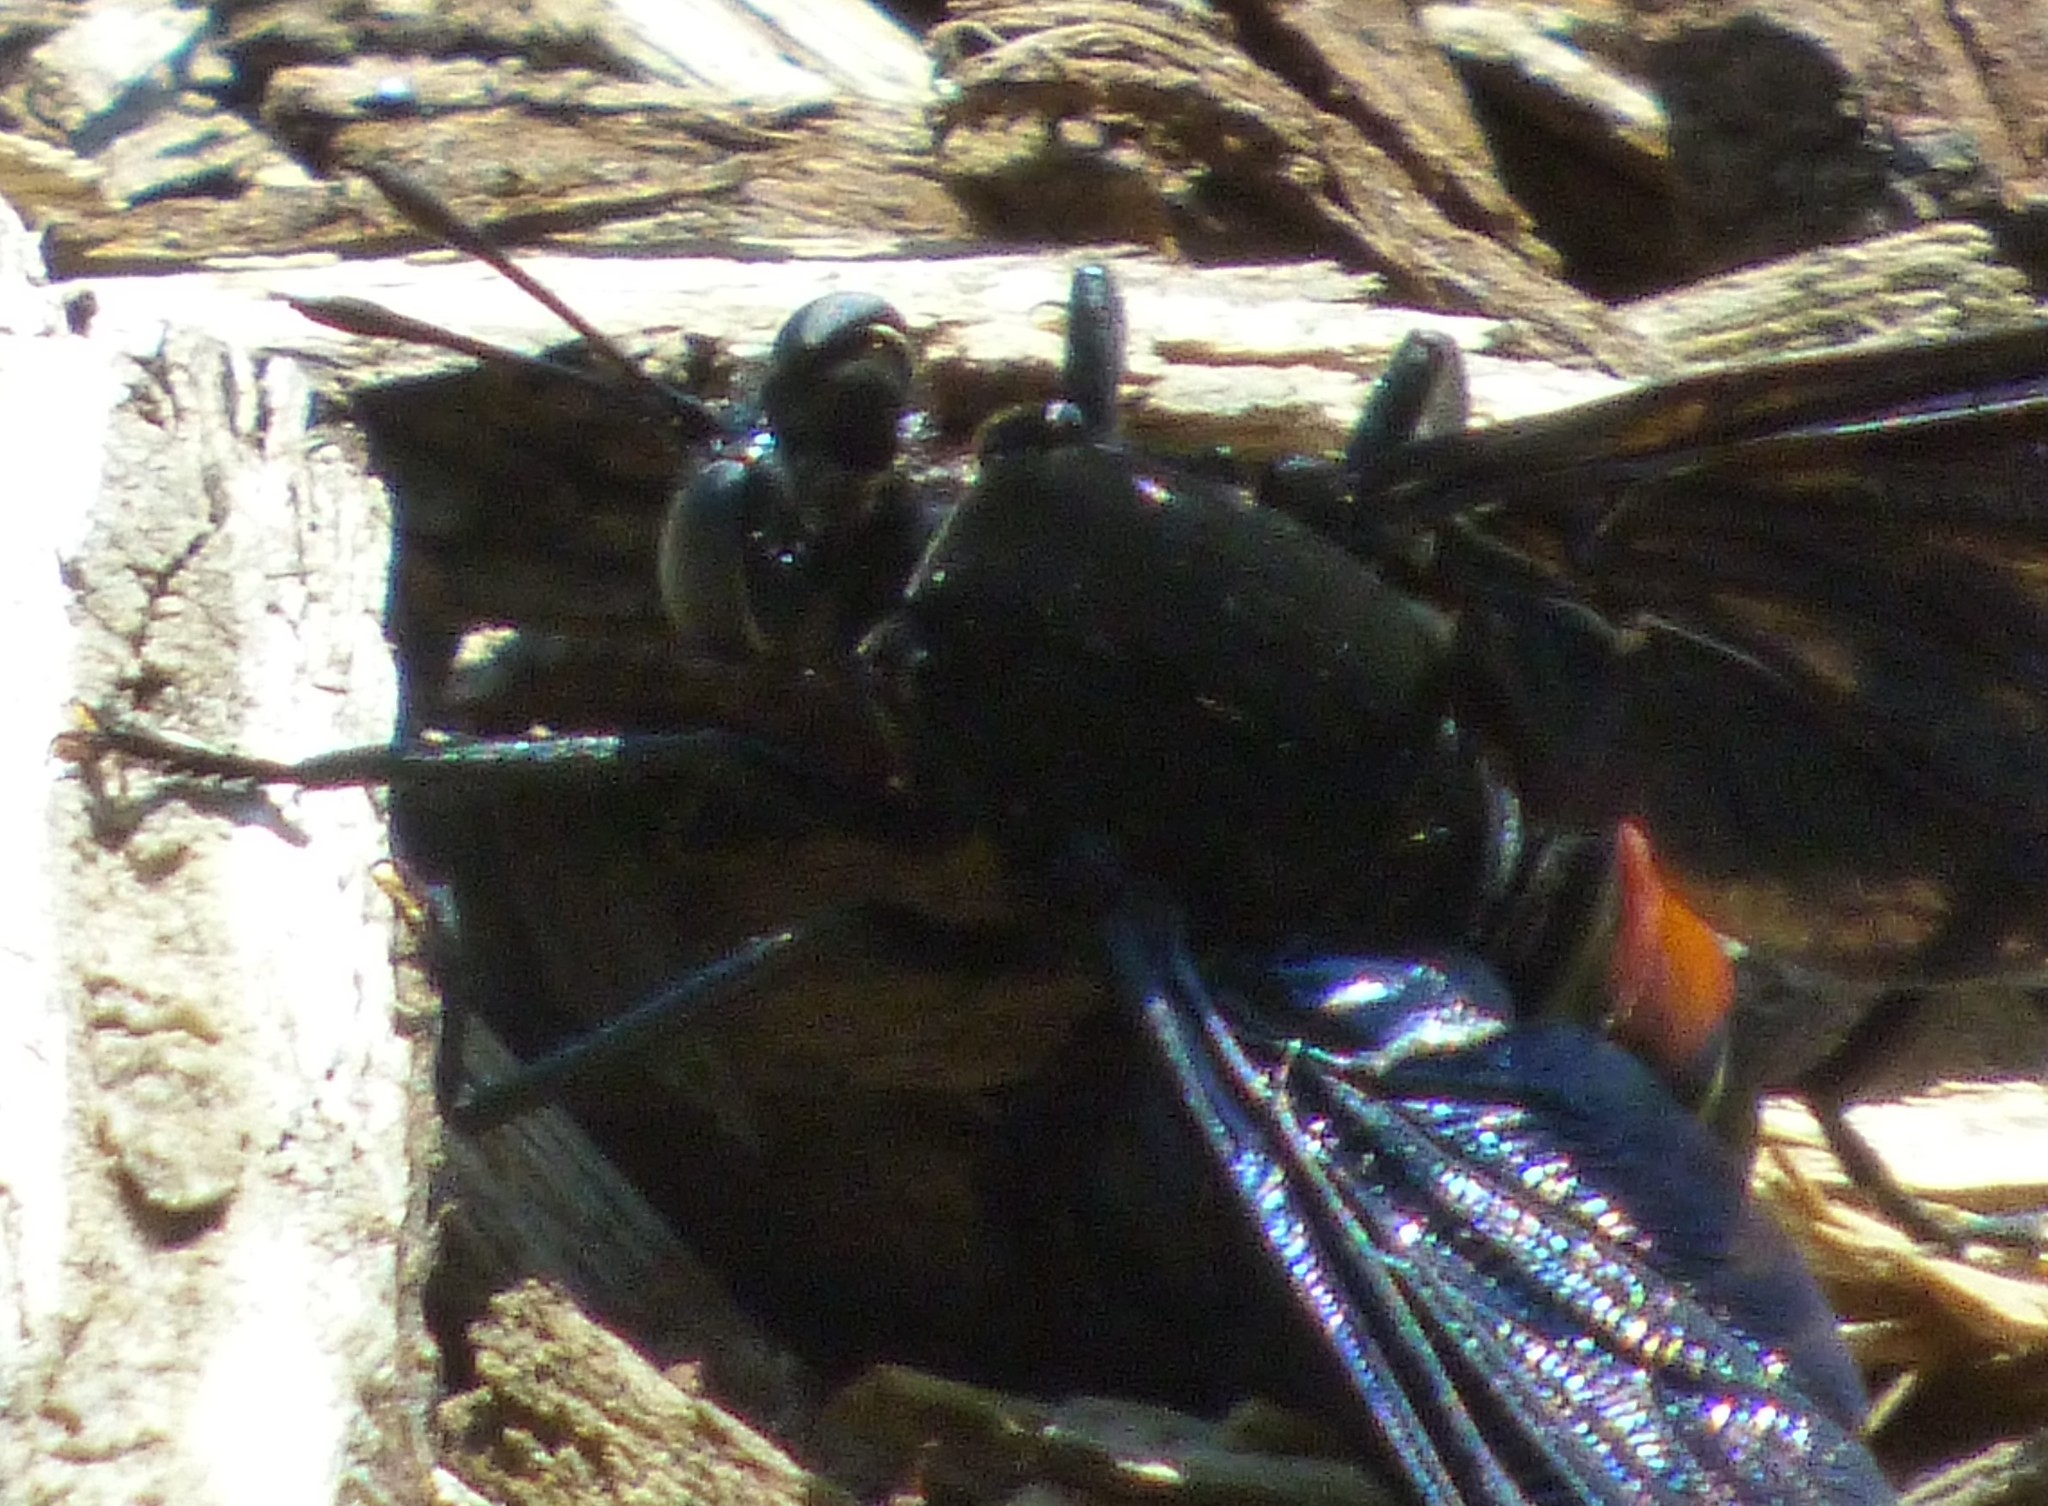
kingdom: Animalia
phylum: Arthropoda
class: Insecta
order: Diptera
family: Mydidae
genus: Mydas
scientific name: Mydas clavatus
